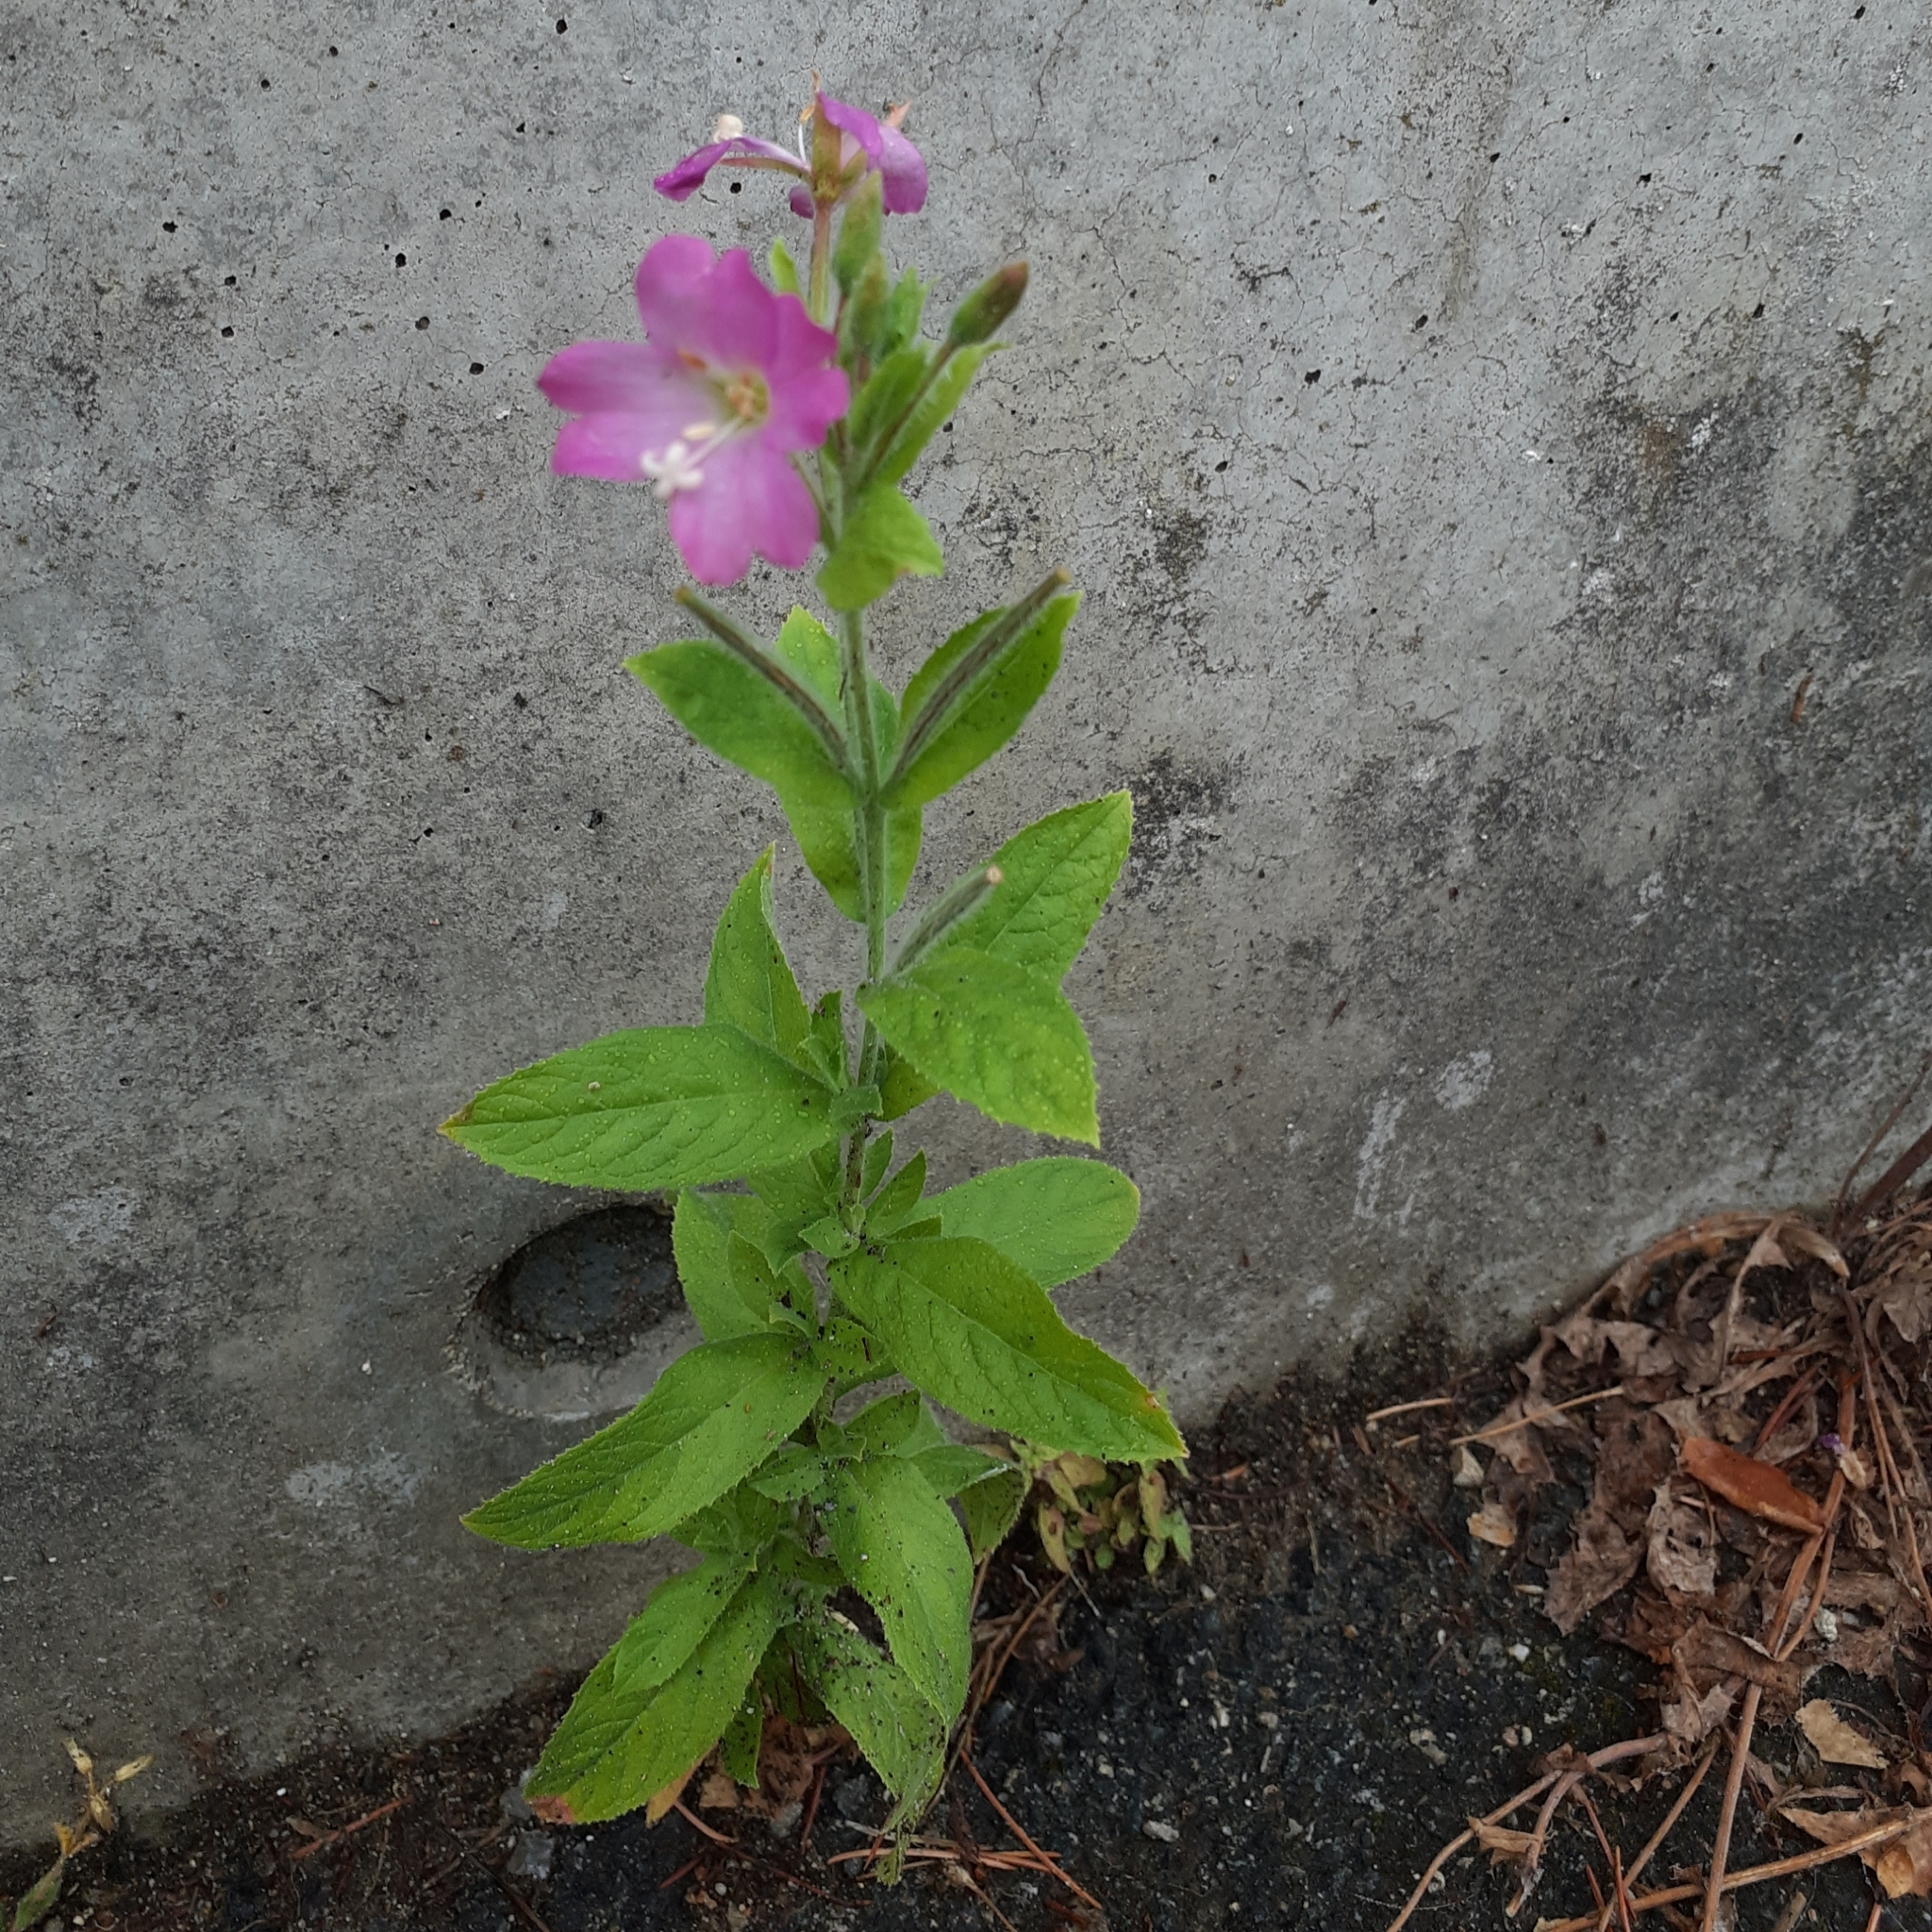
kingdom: Plantae
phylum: Tracheophyta
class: Magnoliopsida
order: Myrtales
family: Onagraceae
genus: Epilobium
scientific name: Epilobium hirsutum
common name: Great willowherb
